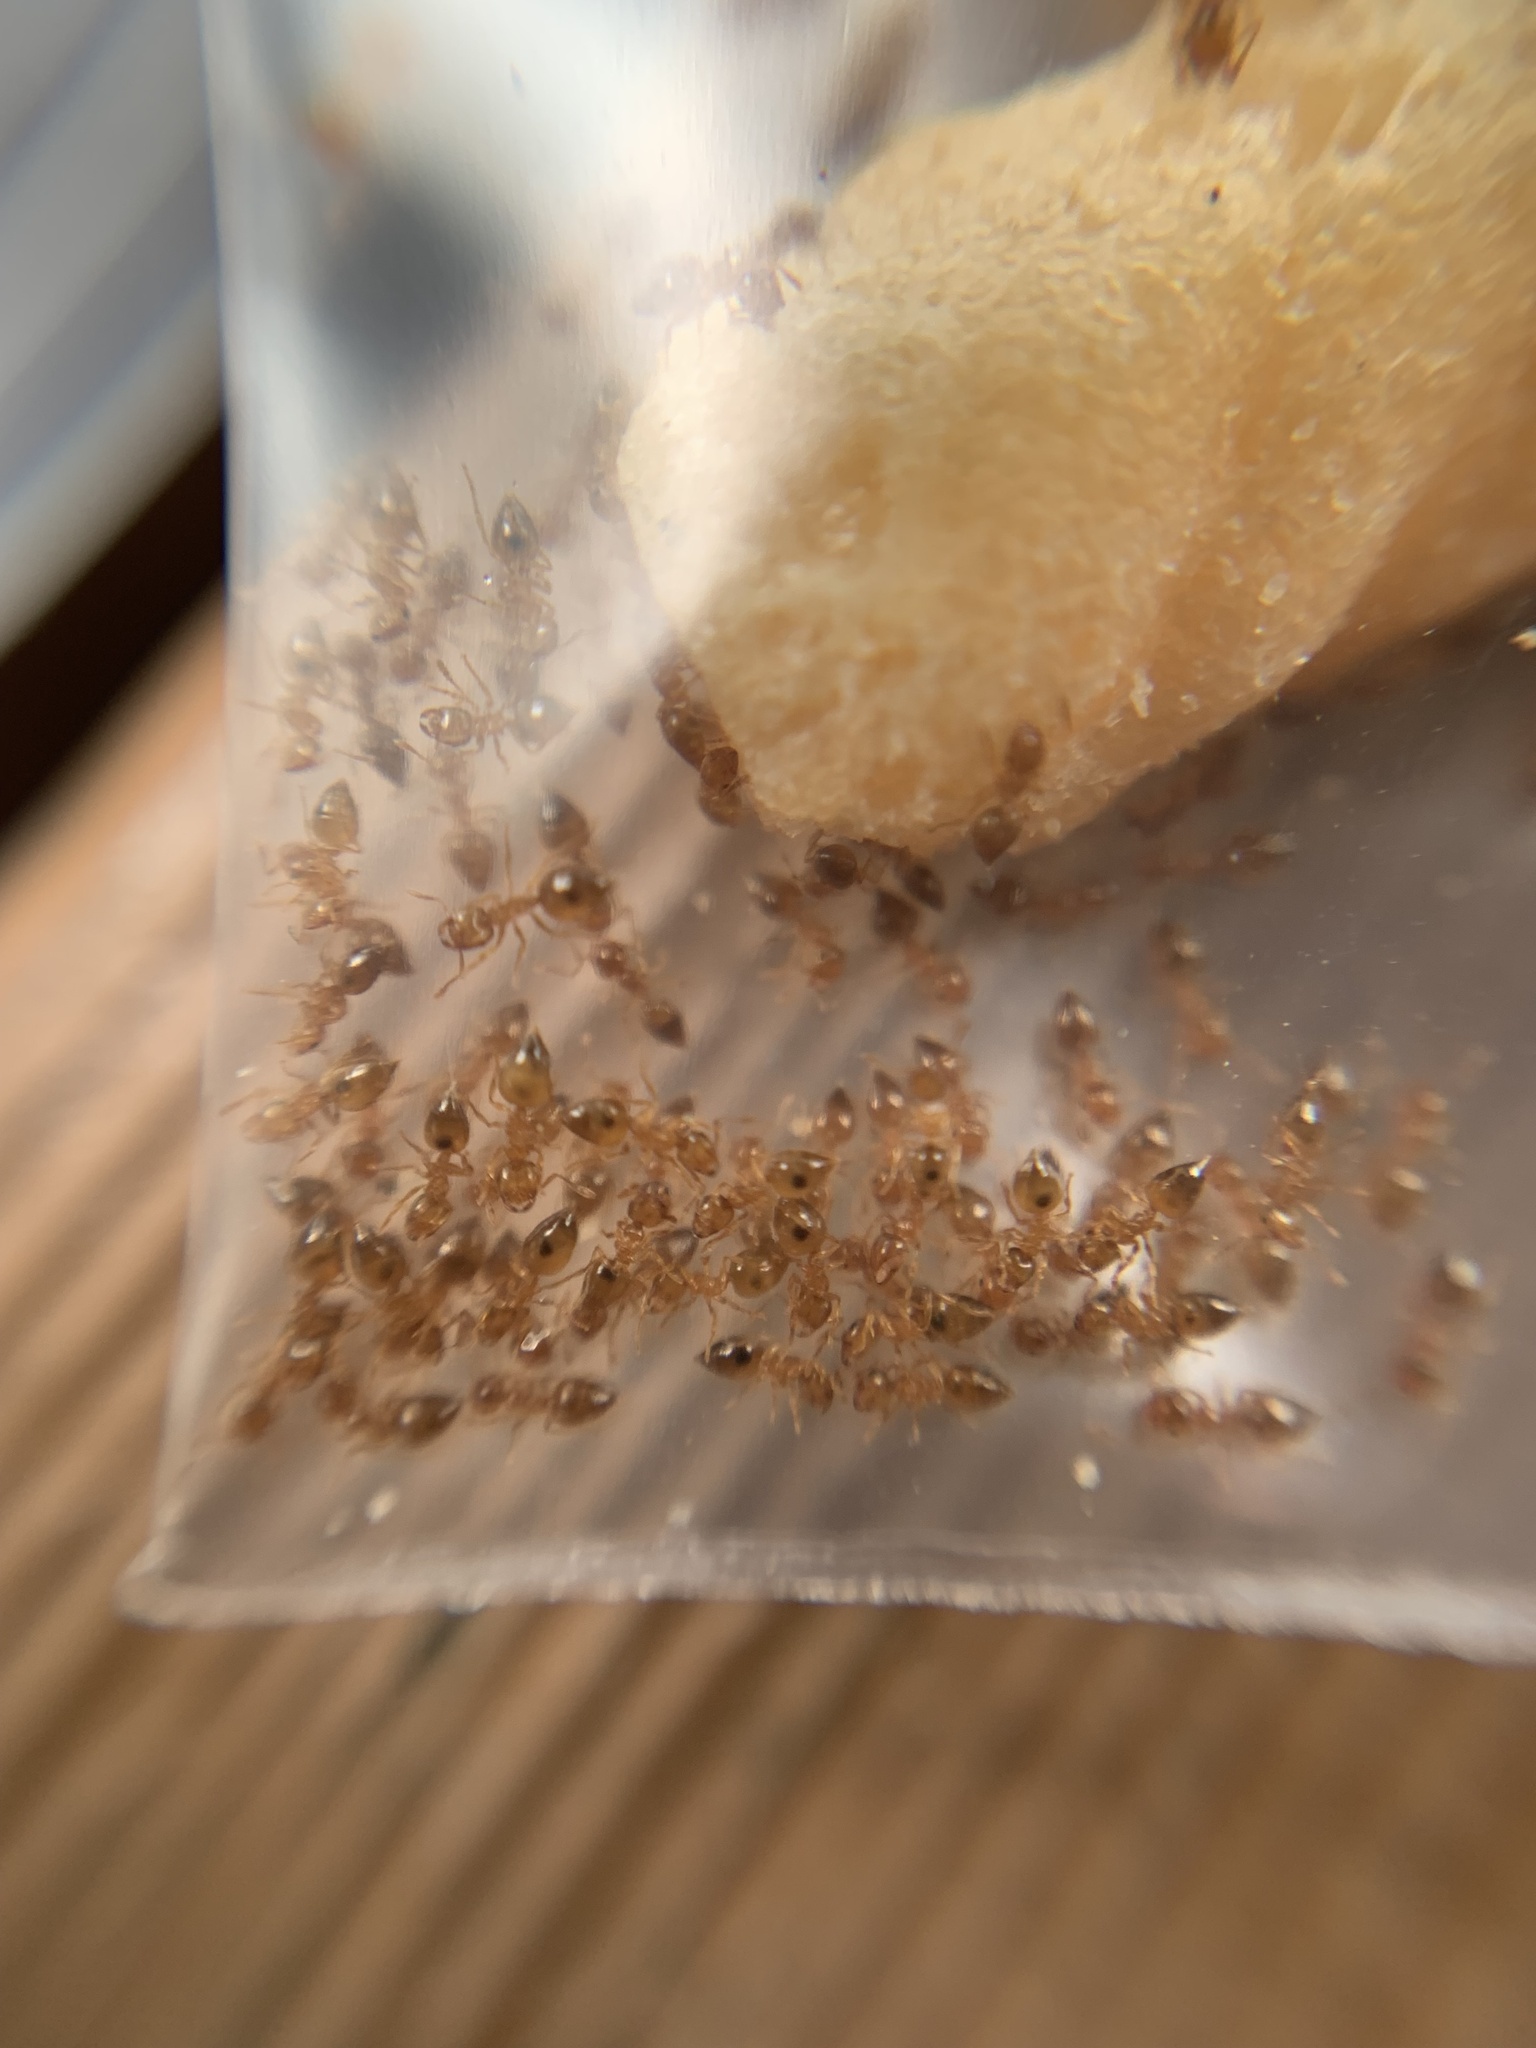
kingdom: Animalia
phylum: Arthropoda
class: Insecta
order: Hymenoptera
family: Formicidae
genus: Crematogaster
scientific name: Crematogaster osakensis
